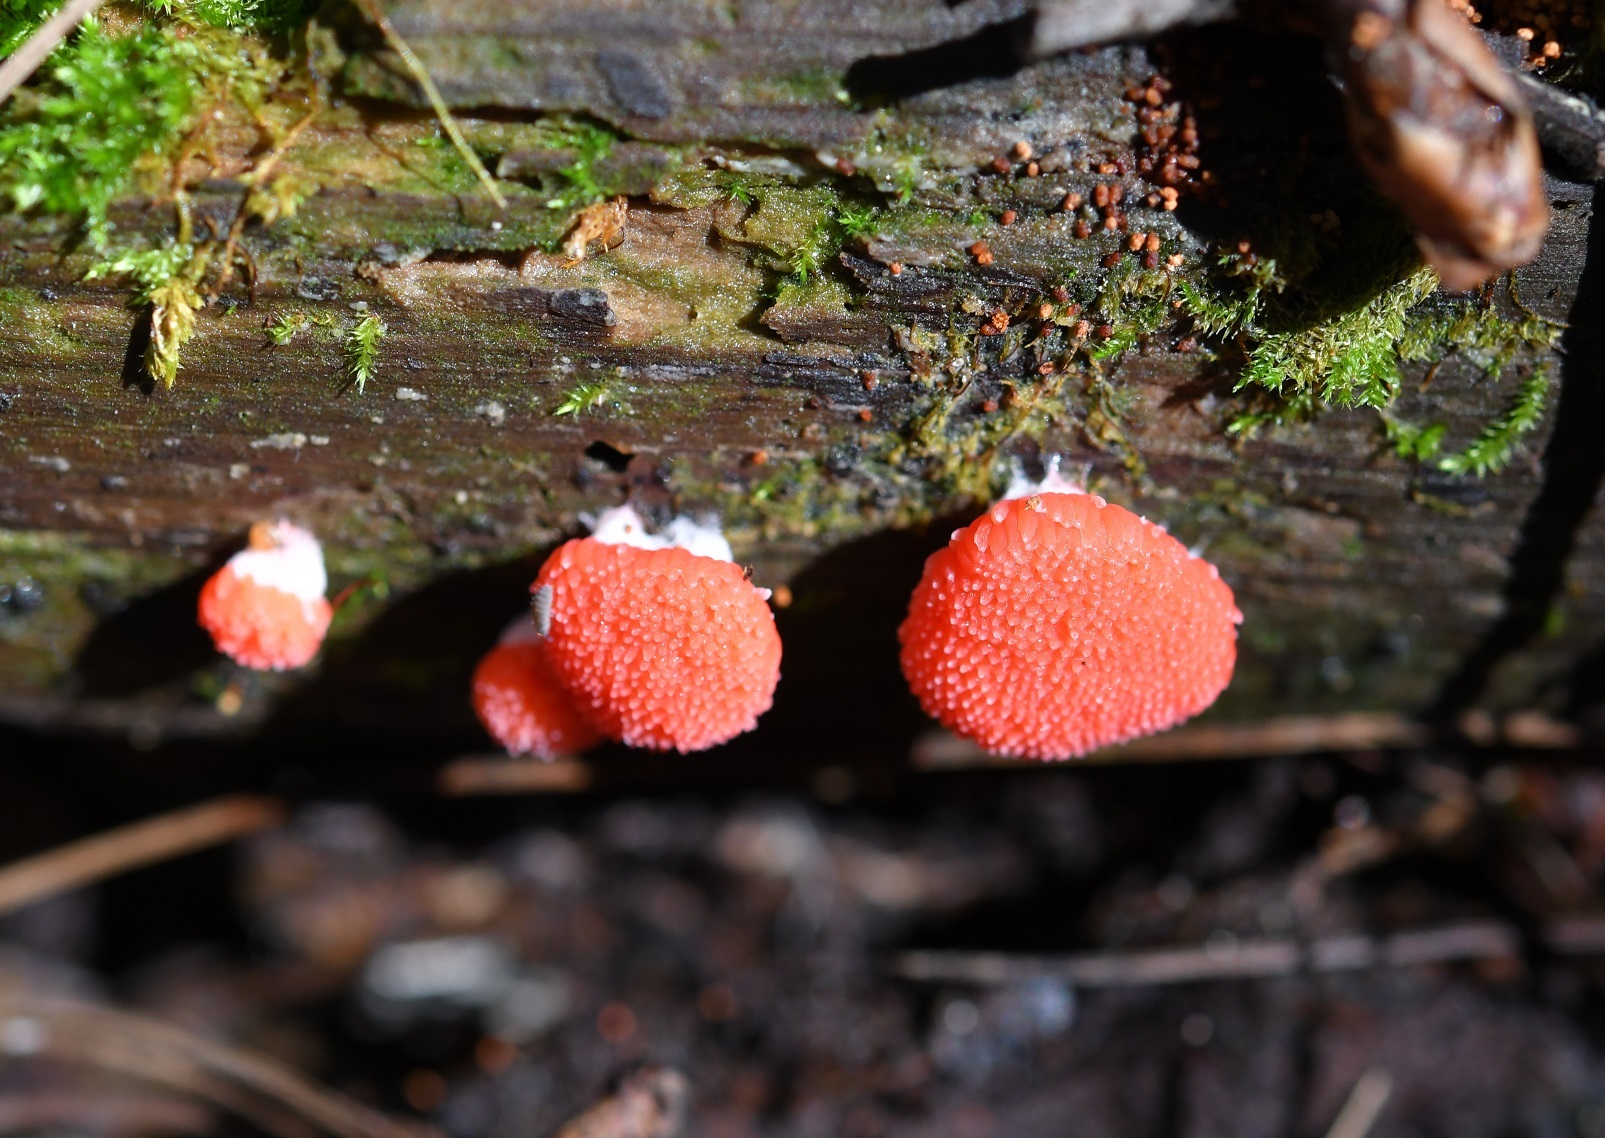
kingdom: Protozoa
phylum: Mycetozoa
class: Myxomycetes
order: Cribrariales
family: Tubiferaceae
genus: Tubifera
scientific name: Tubifera ferruginosa
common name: Red raspberry slime mold
